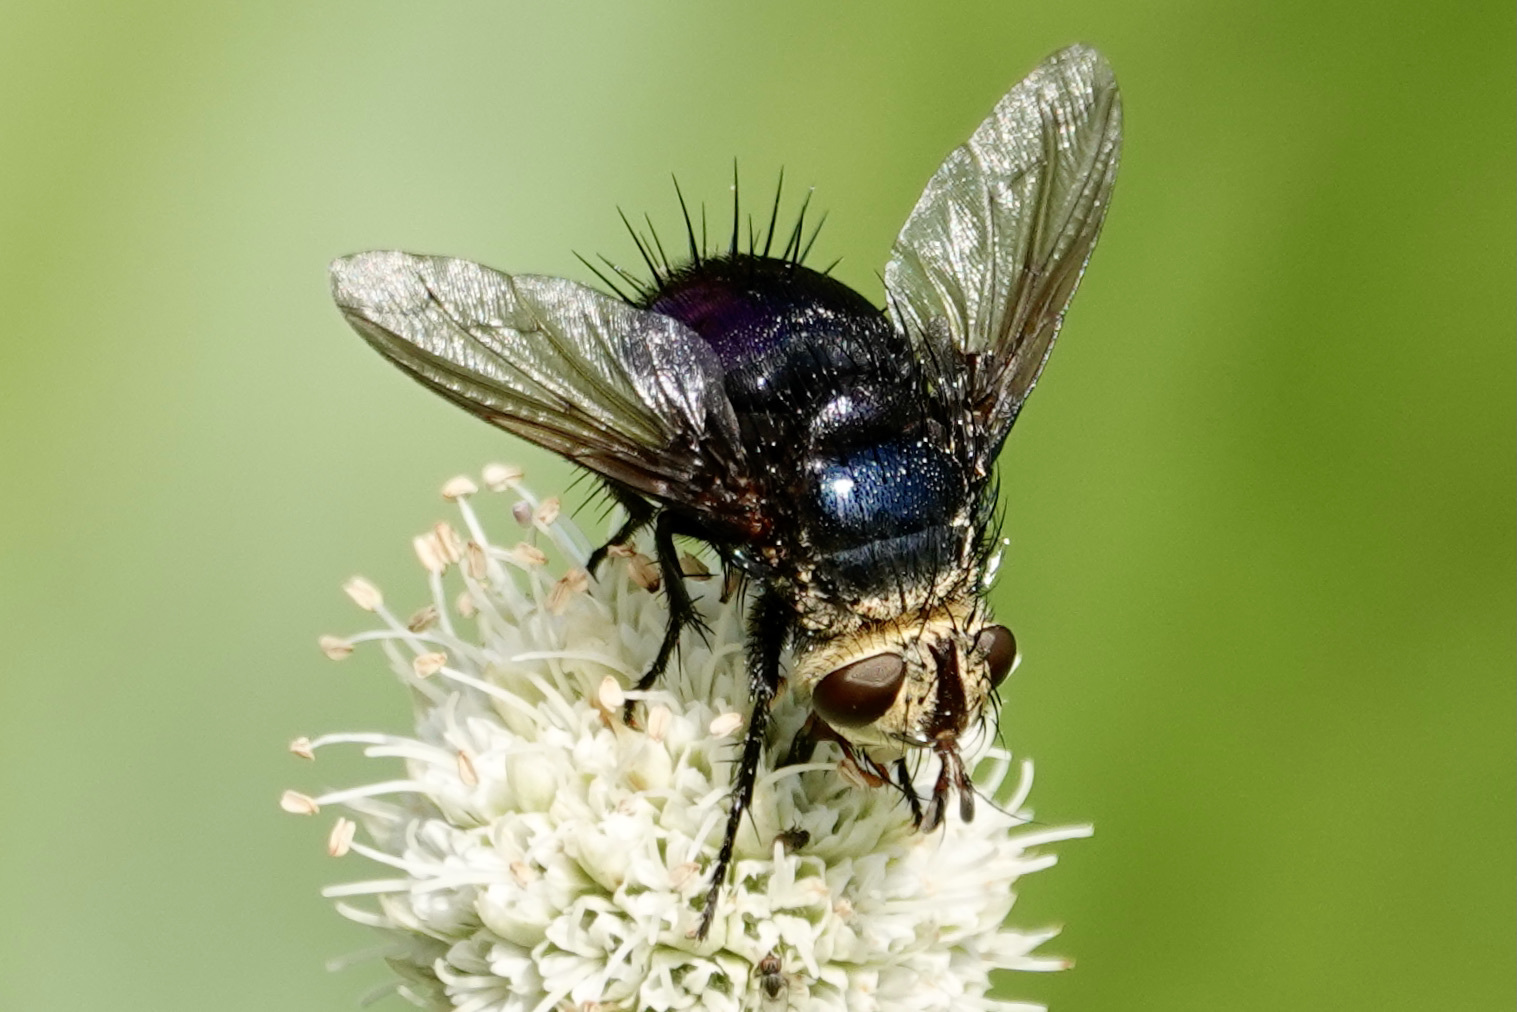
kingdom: Animalia
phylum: Arthropoda
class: Insecta
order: Diptera
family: Tachinidae
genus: Juriniopsis
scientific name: Juriniopsis adusta
